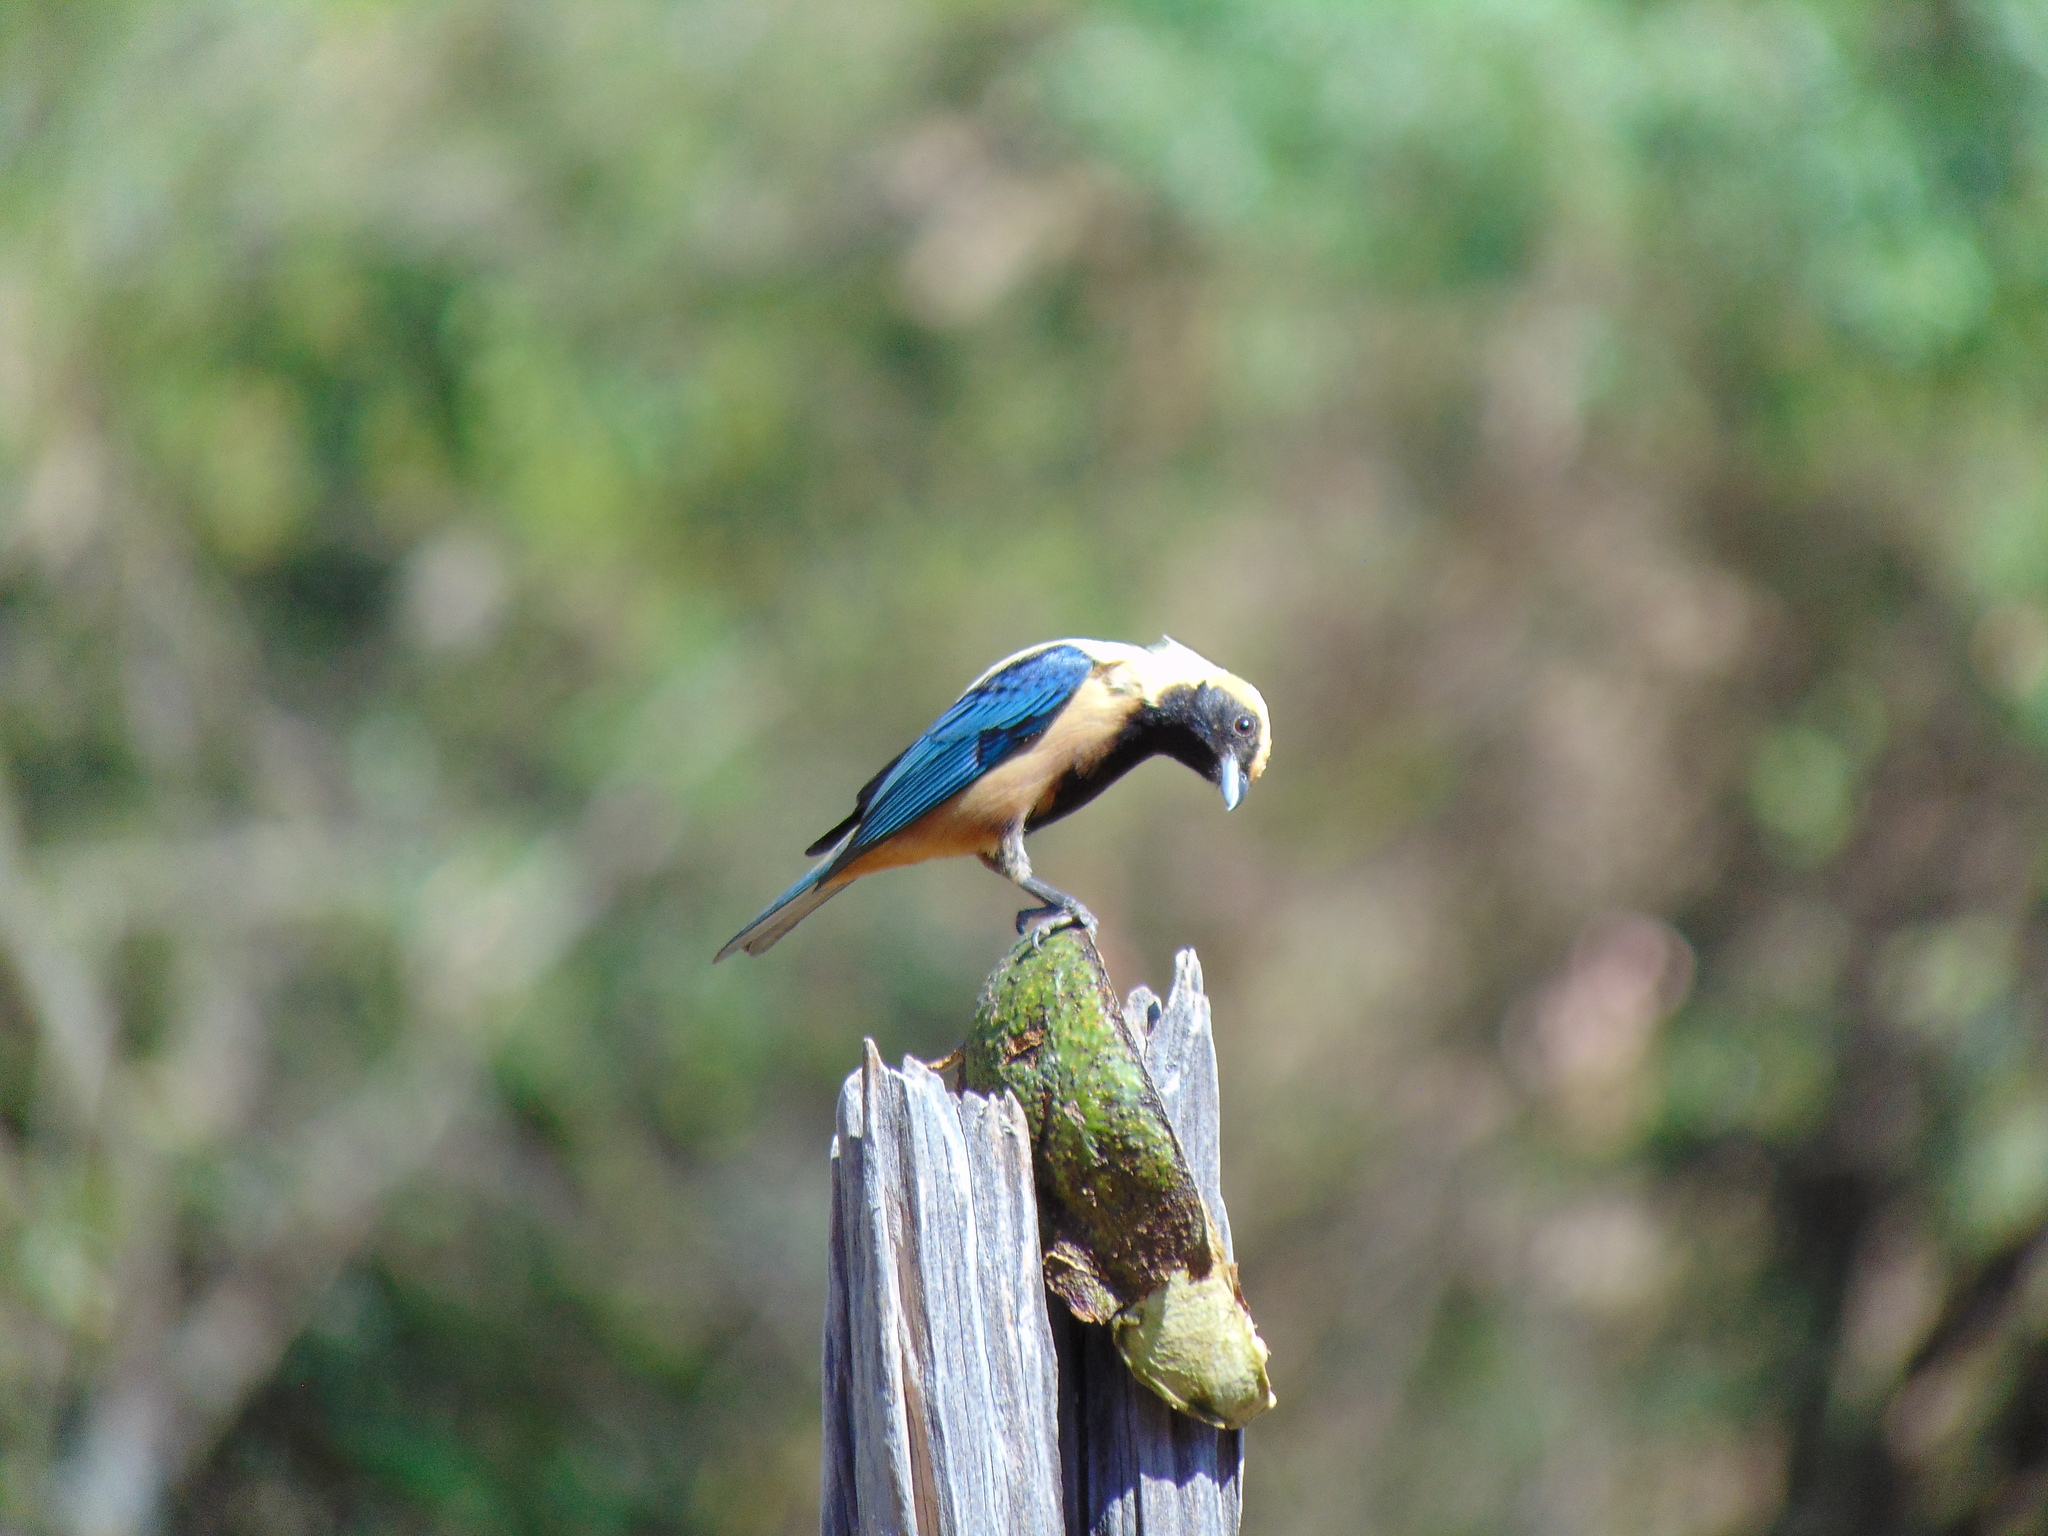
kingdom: Animalia
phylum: Chordata
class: Aves
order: Passeriformes
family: Thraupidae
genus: Stilpnia
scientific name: Stilpnia cayana
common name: Burnished-buff tanager
